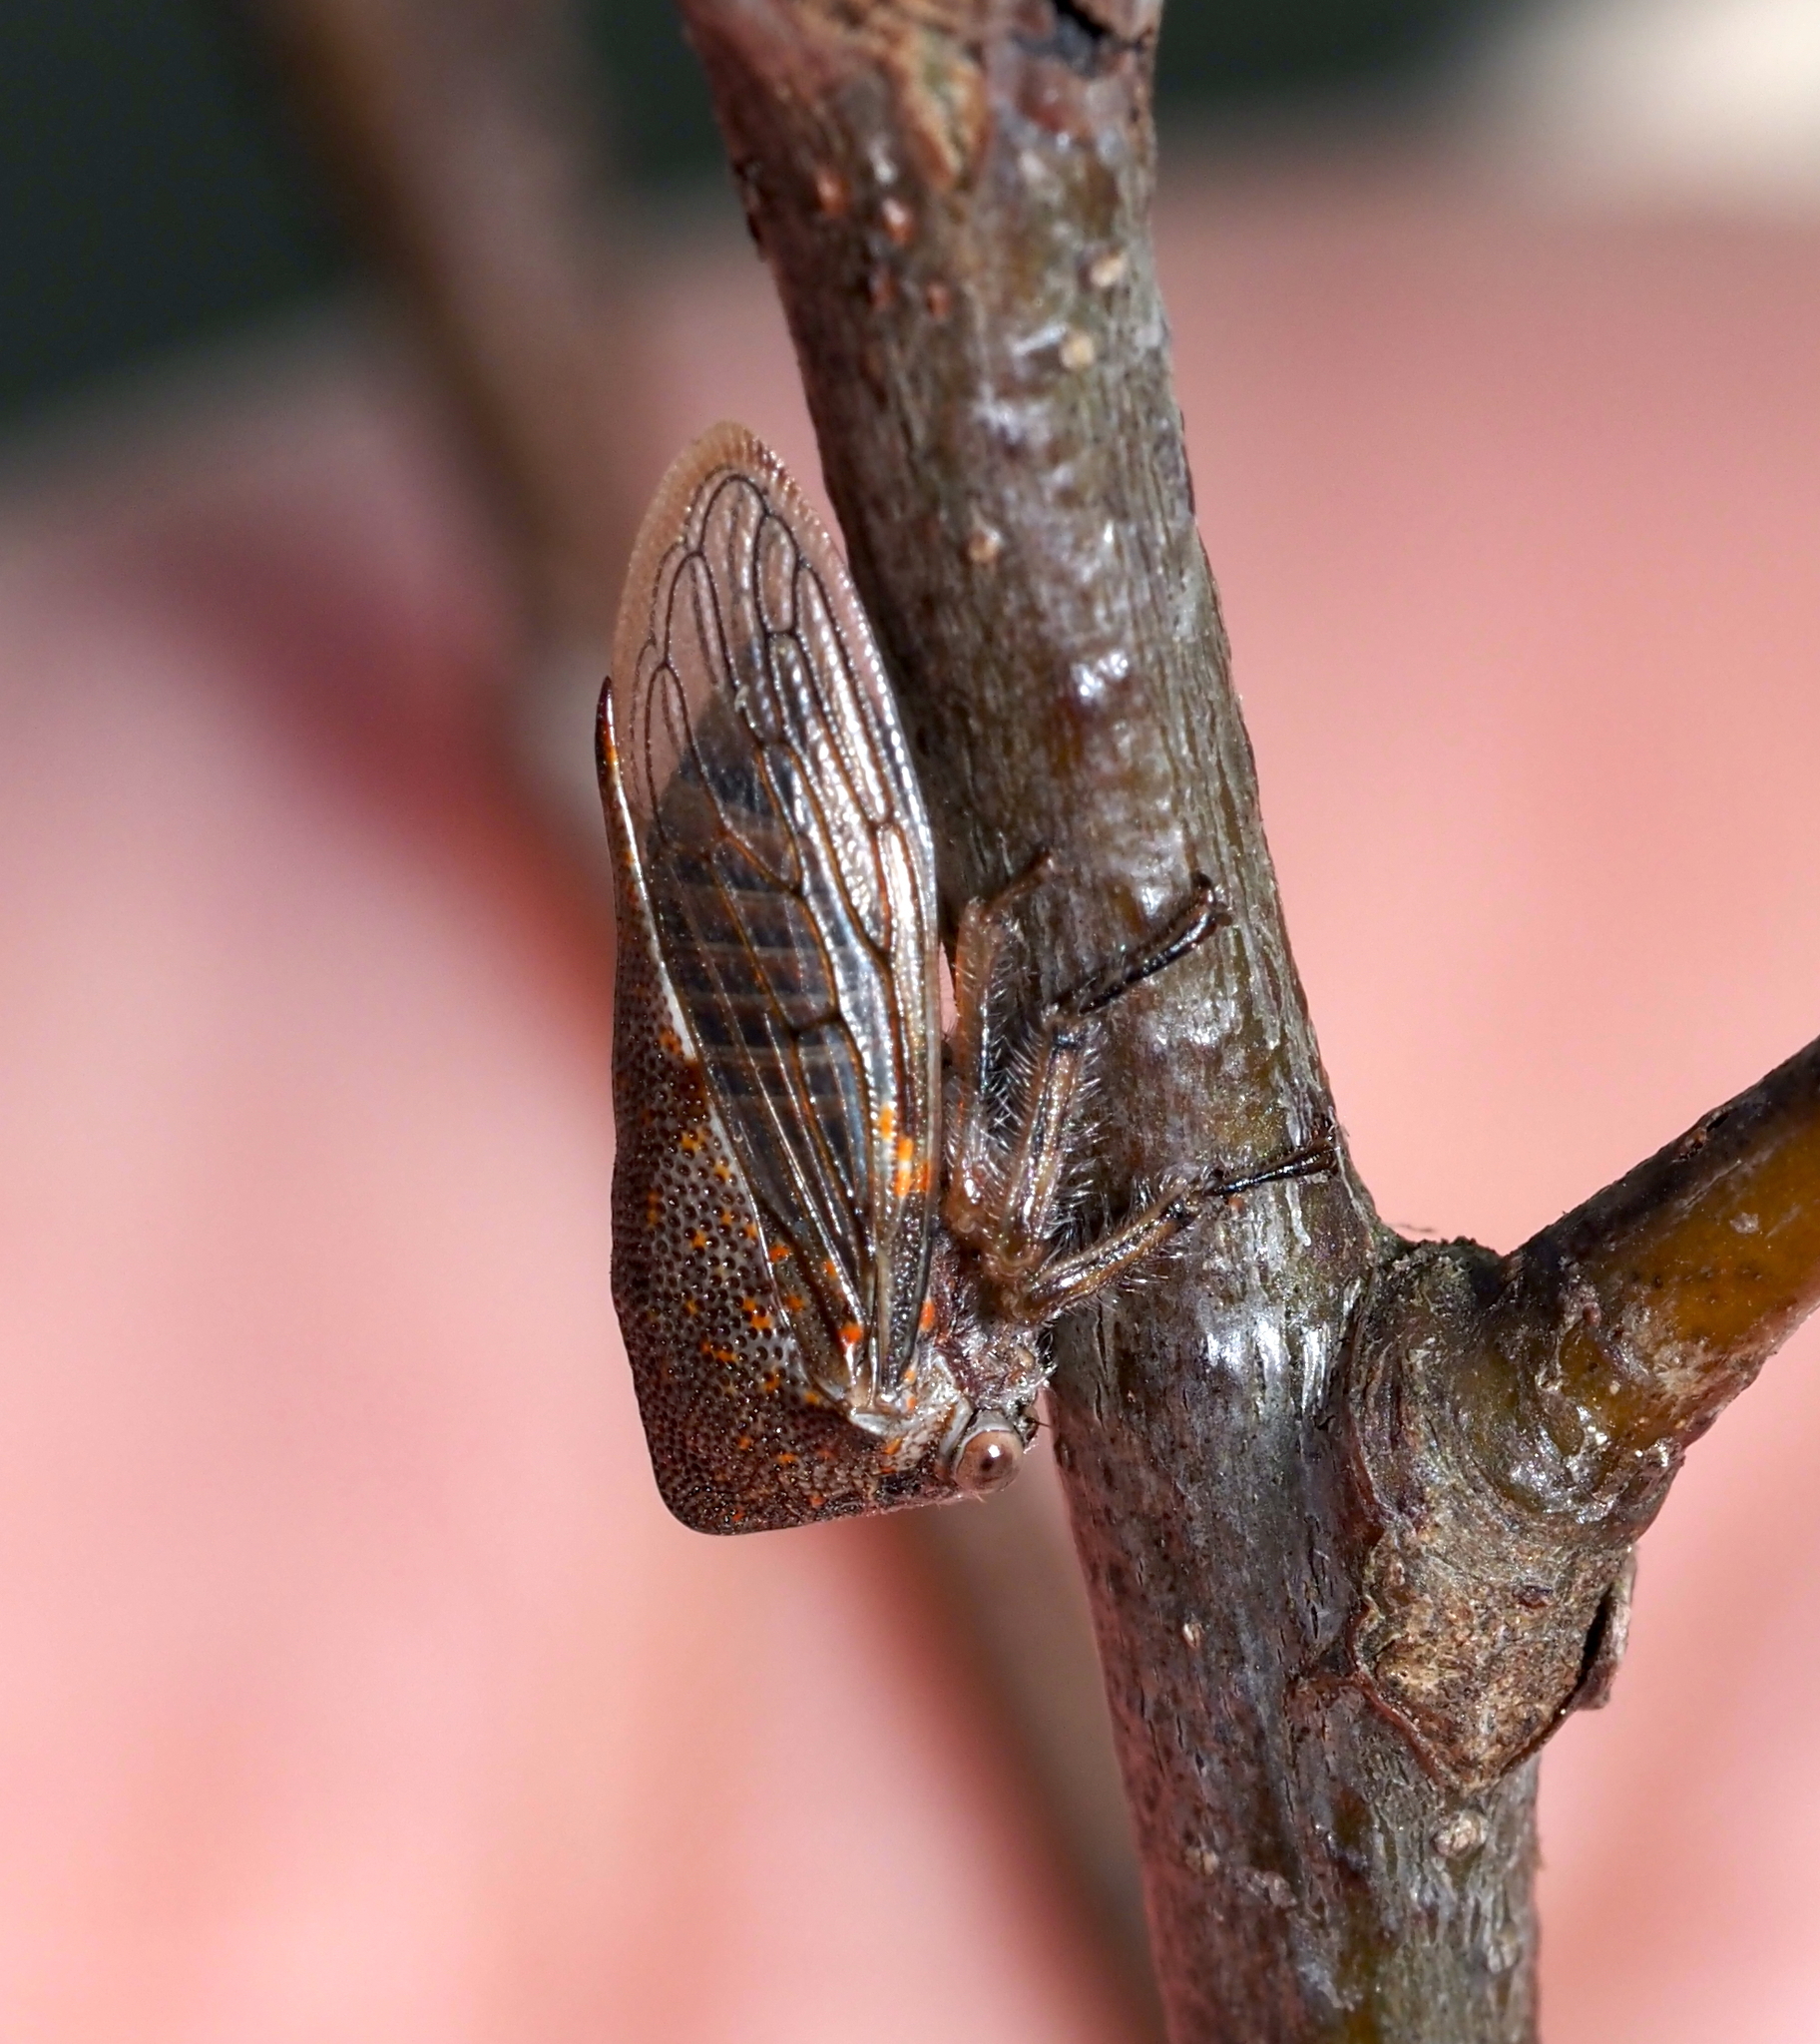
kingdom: Animalia
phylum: Arthropoda
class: Insecta
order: Hemiptera
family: Membracidae
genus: Platycotis
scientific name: Platycotis vittatus
